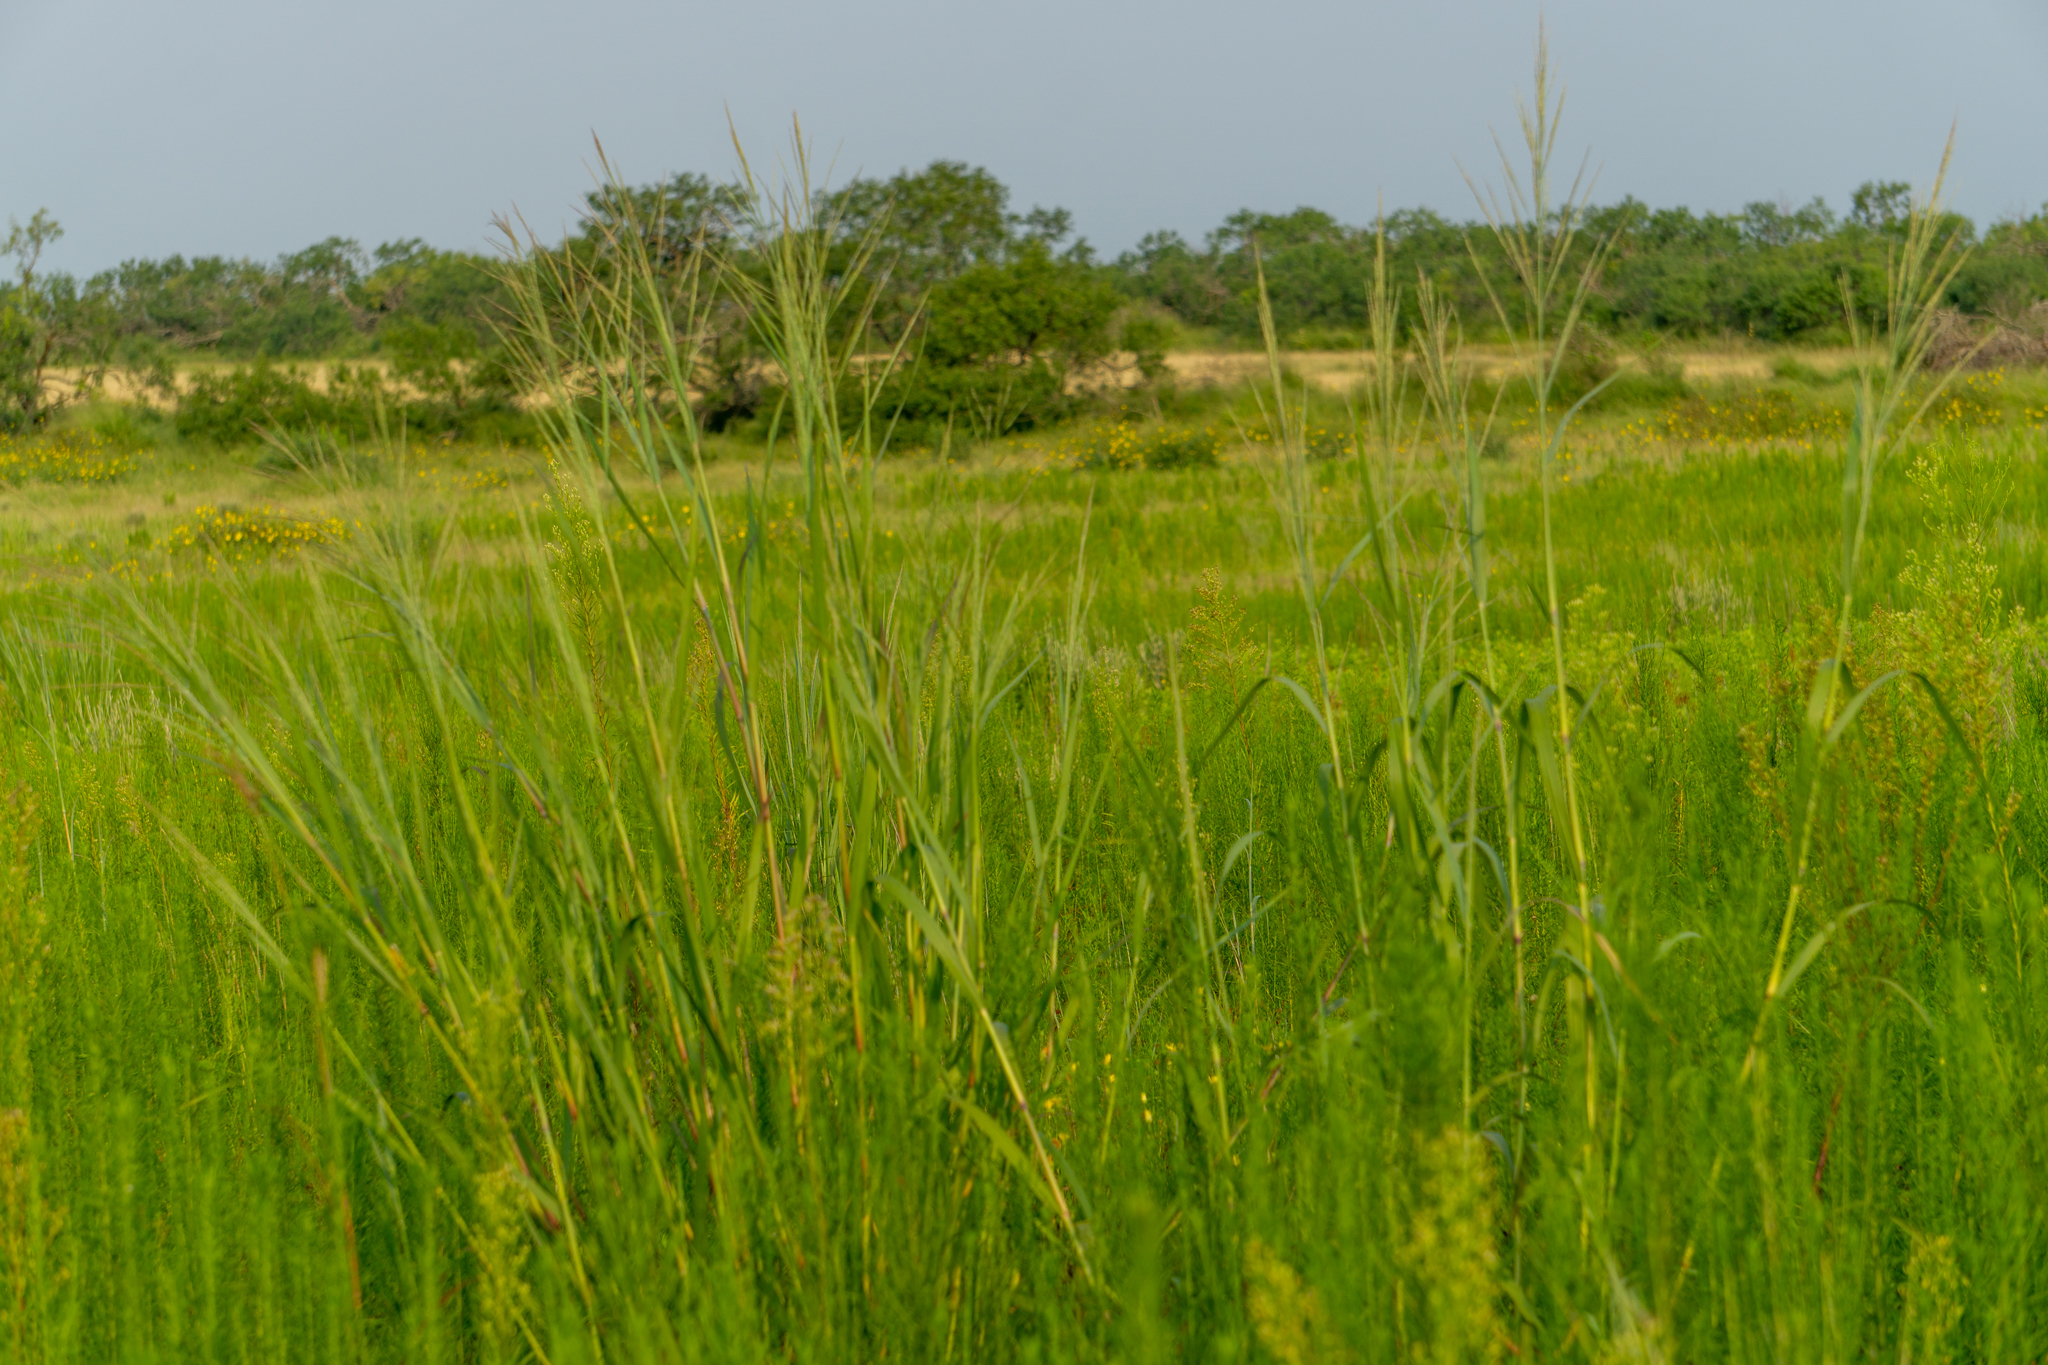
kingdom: Plantae
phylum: Tracheophyta
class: Liliopsida
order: Poales
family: Poaceae
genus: Panicum
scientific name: Panicum virgatum
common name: Switchgrass
